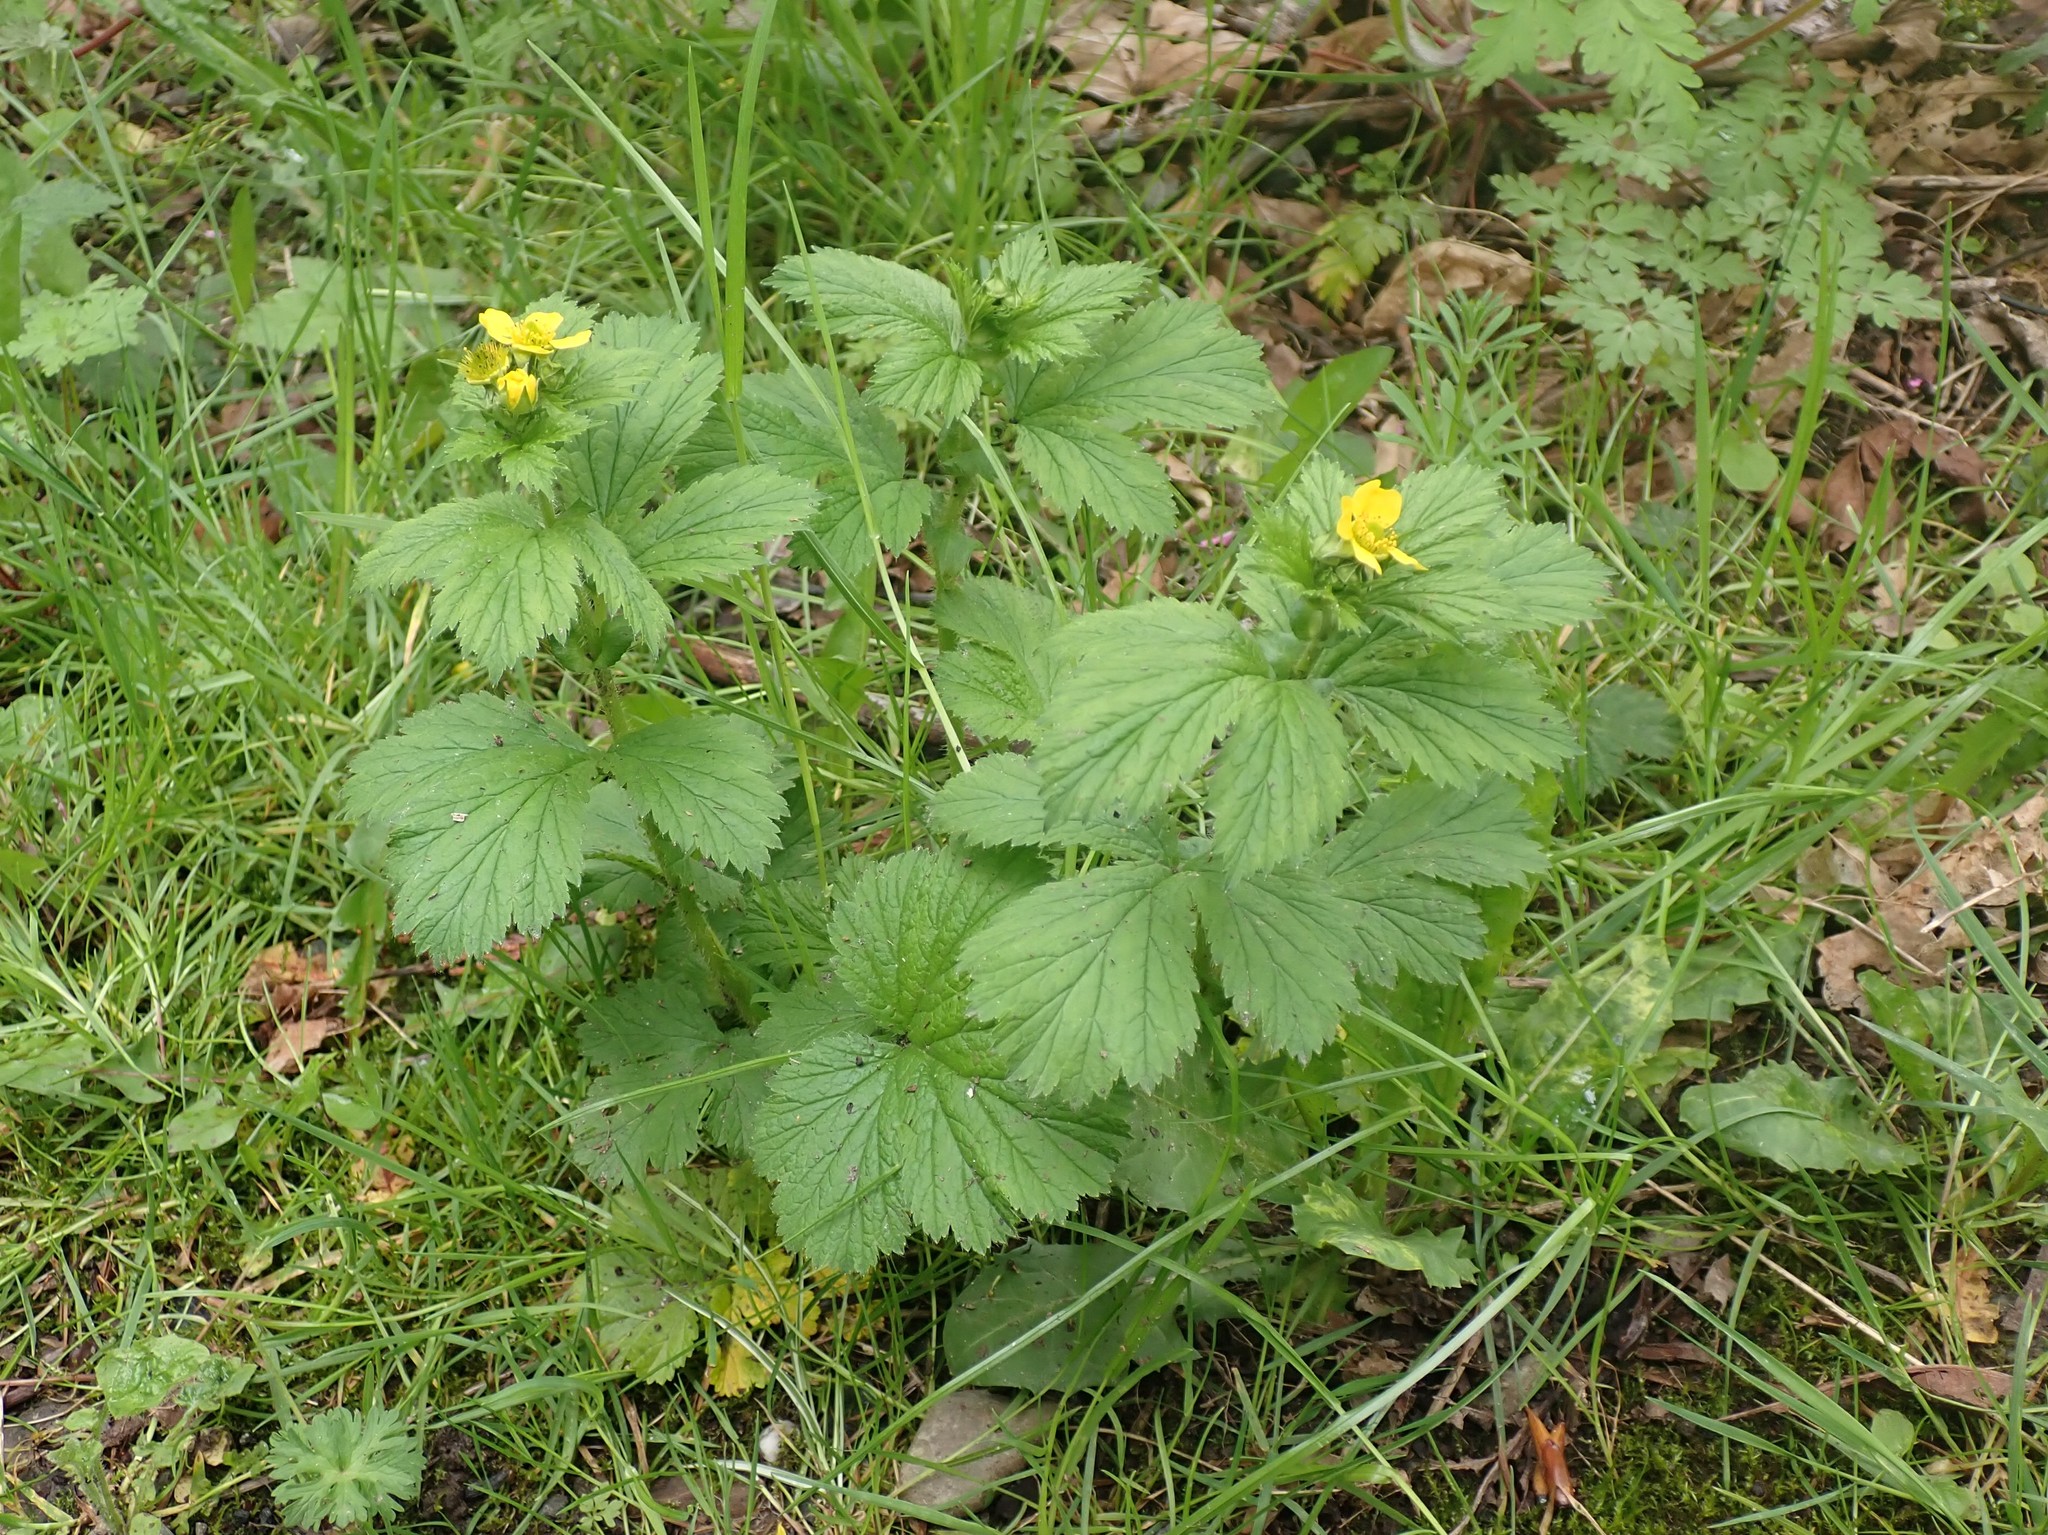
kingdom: Plantae
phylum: Tracheophyta
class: Magnoliopsida
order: Rosales
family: Rosaceae
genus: Geum
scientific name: Geum macrophyllum
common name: Large-leaved avens
